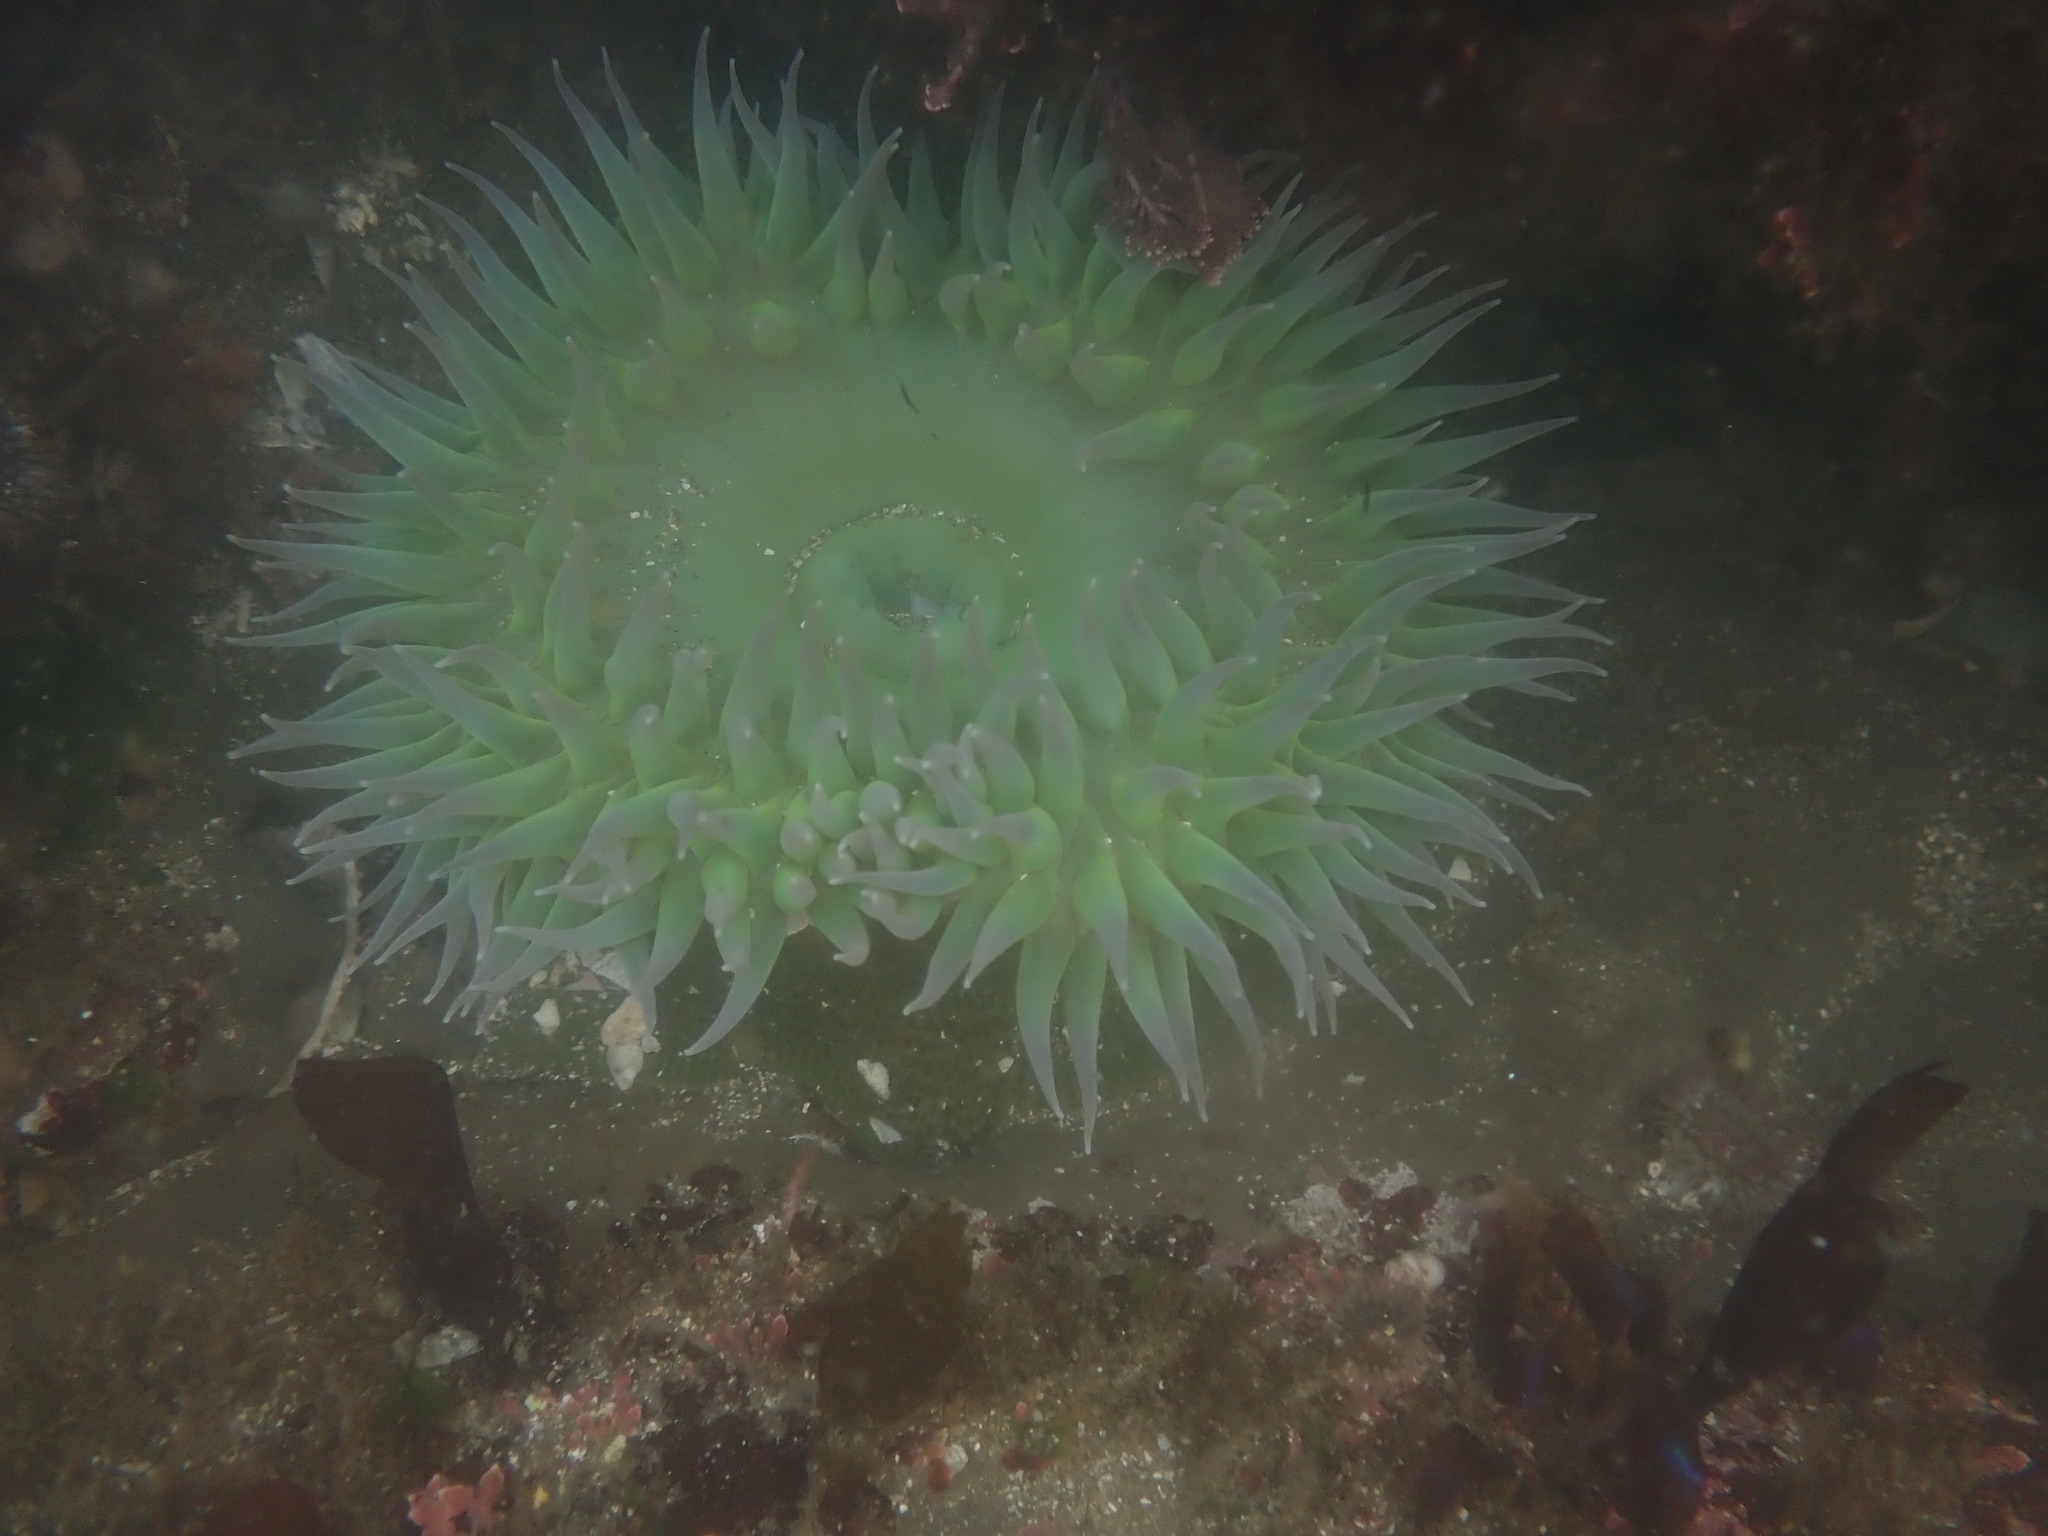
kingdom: Animalia
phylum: Cnidaria
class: Anthozoa
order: Actiniaria
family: Actiniidae
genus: Anthopleura
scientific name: Anthopleura xanthogrammica
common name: Giant green anemone
